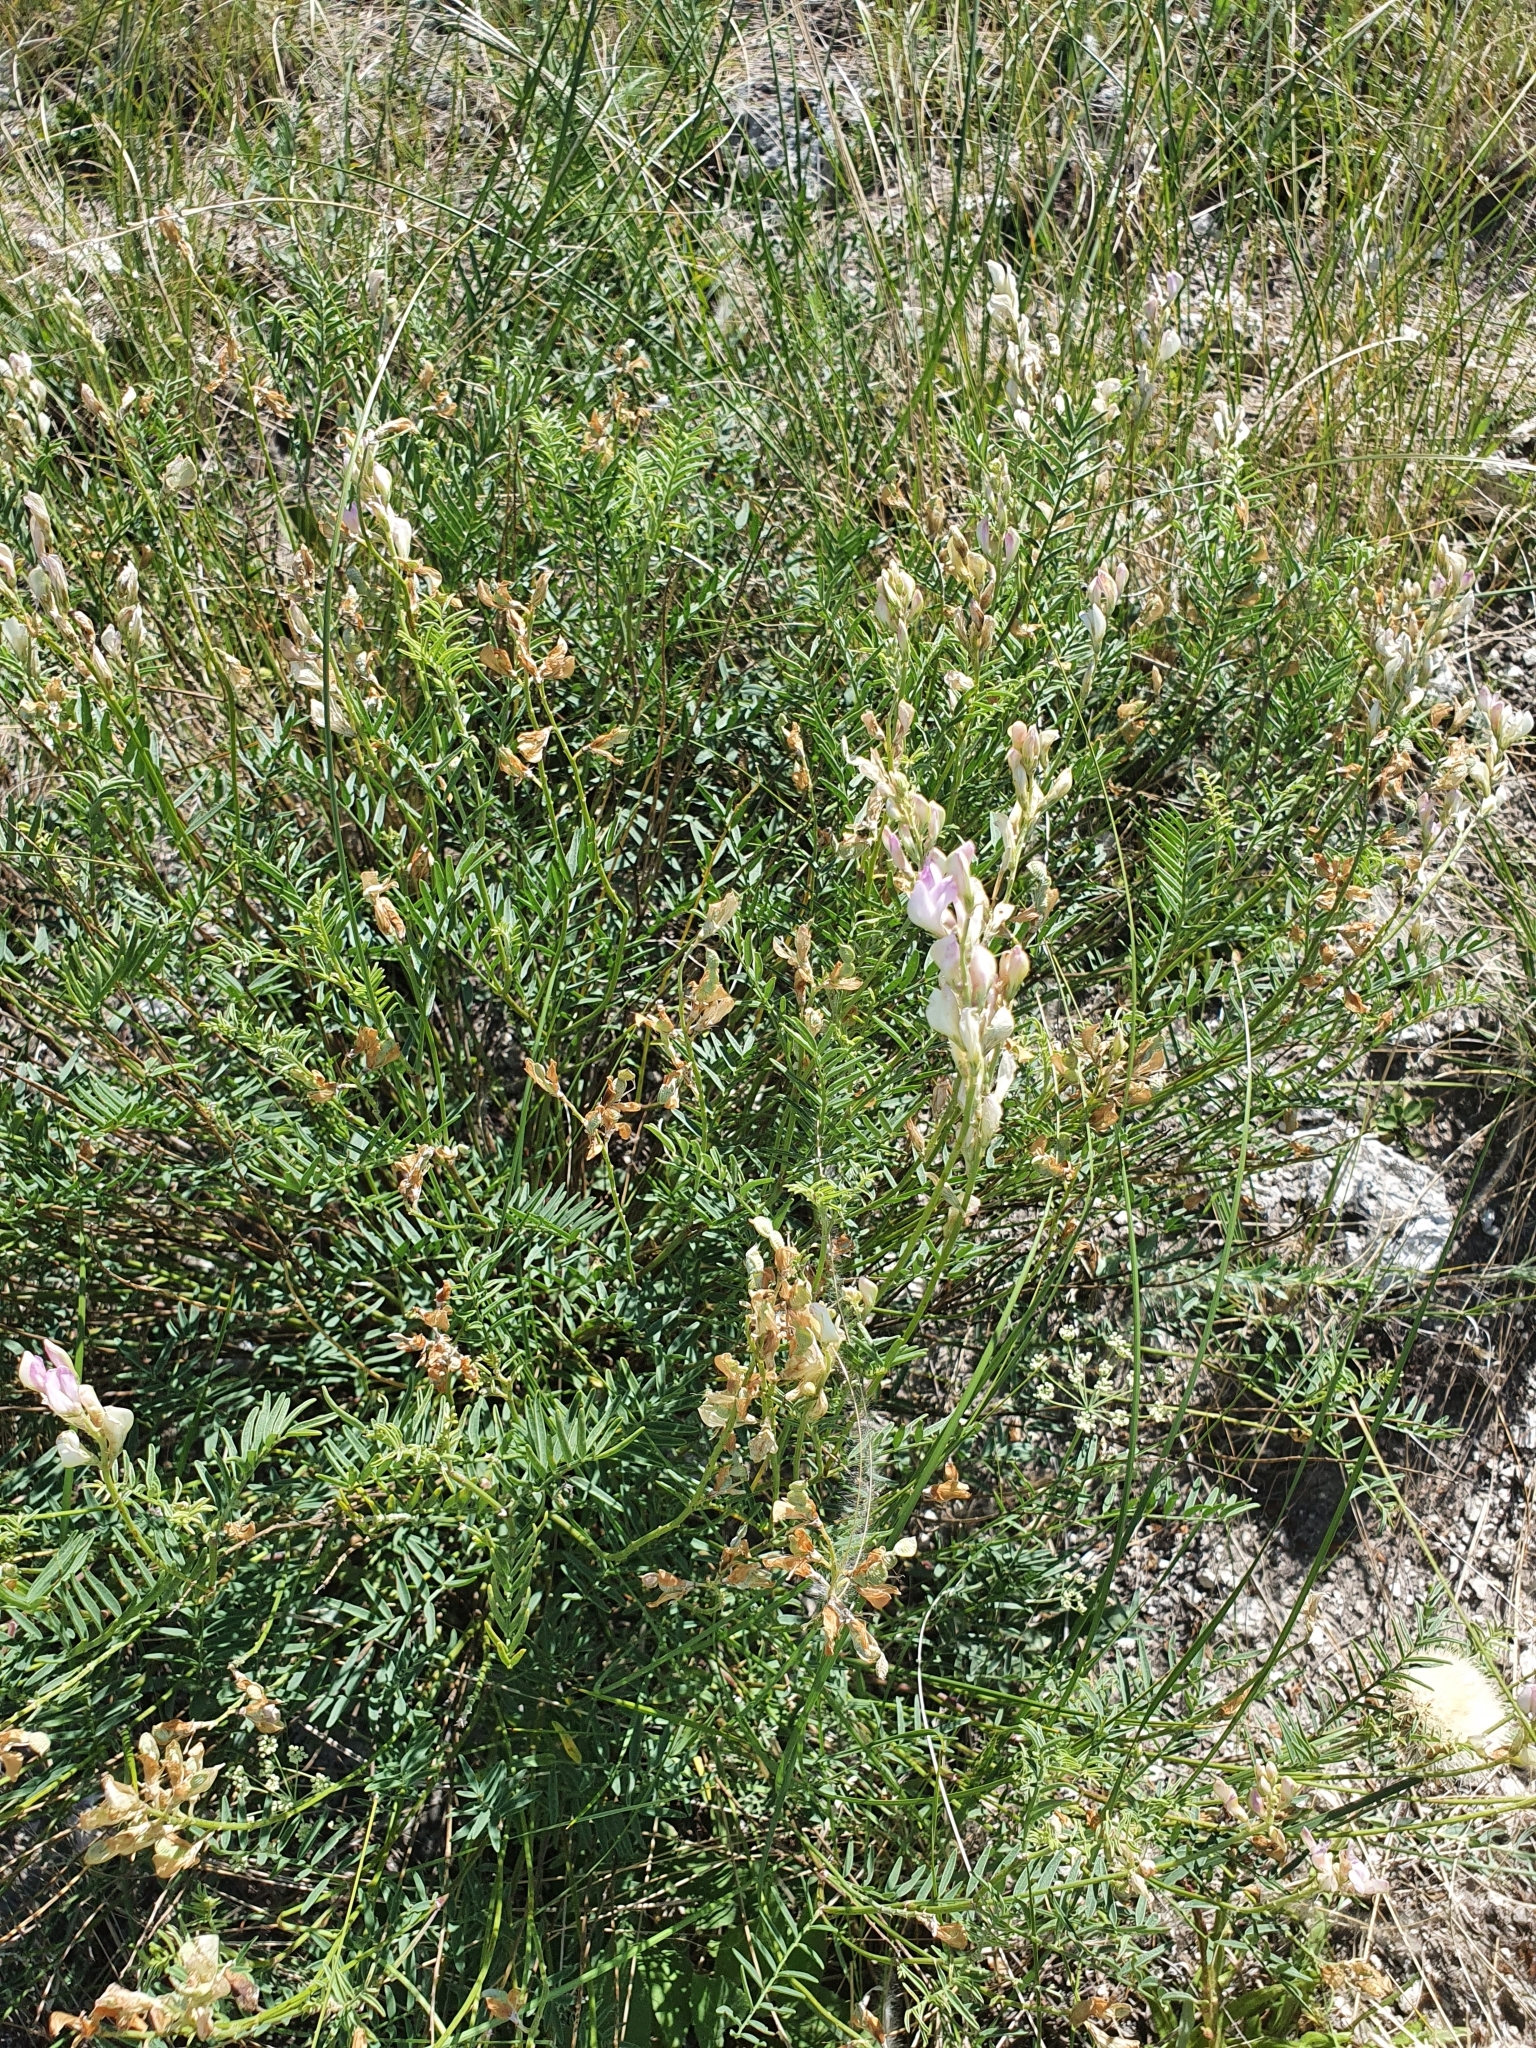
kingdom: Plantae
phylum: Tracheophyta
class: Magnoliopsida
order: Fabales
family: Fabaceae
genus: Hedysarum
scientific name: Hedysarum razoumovianum
